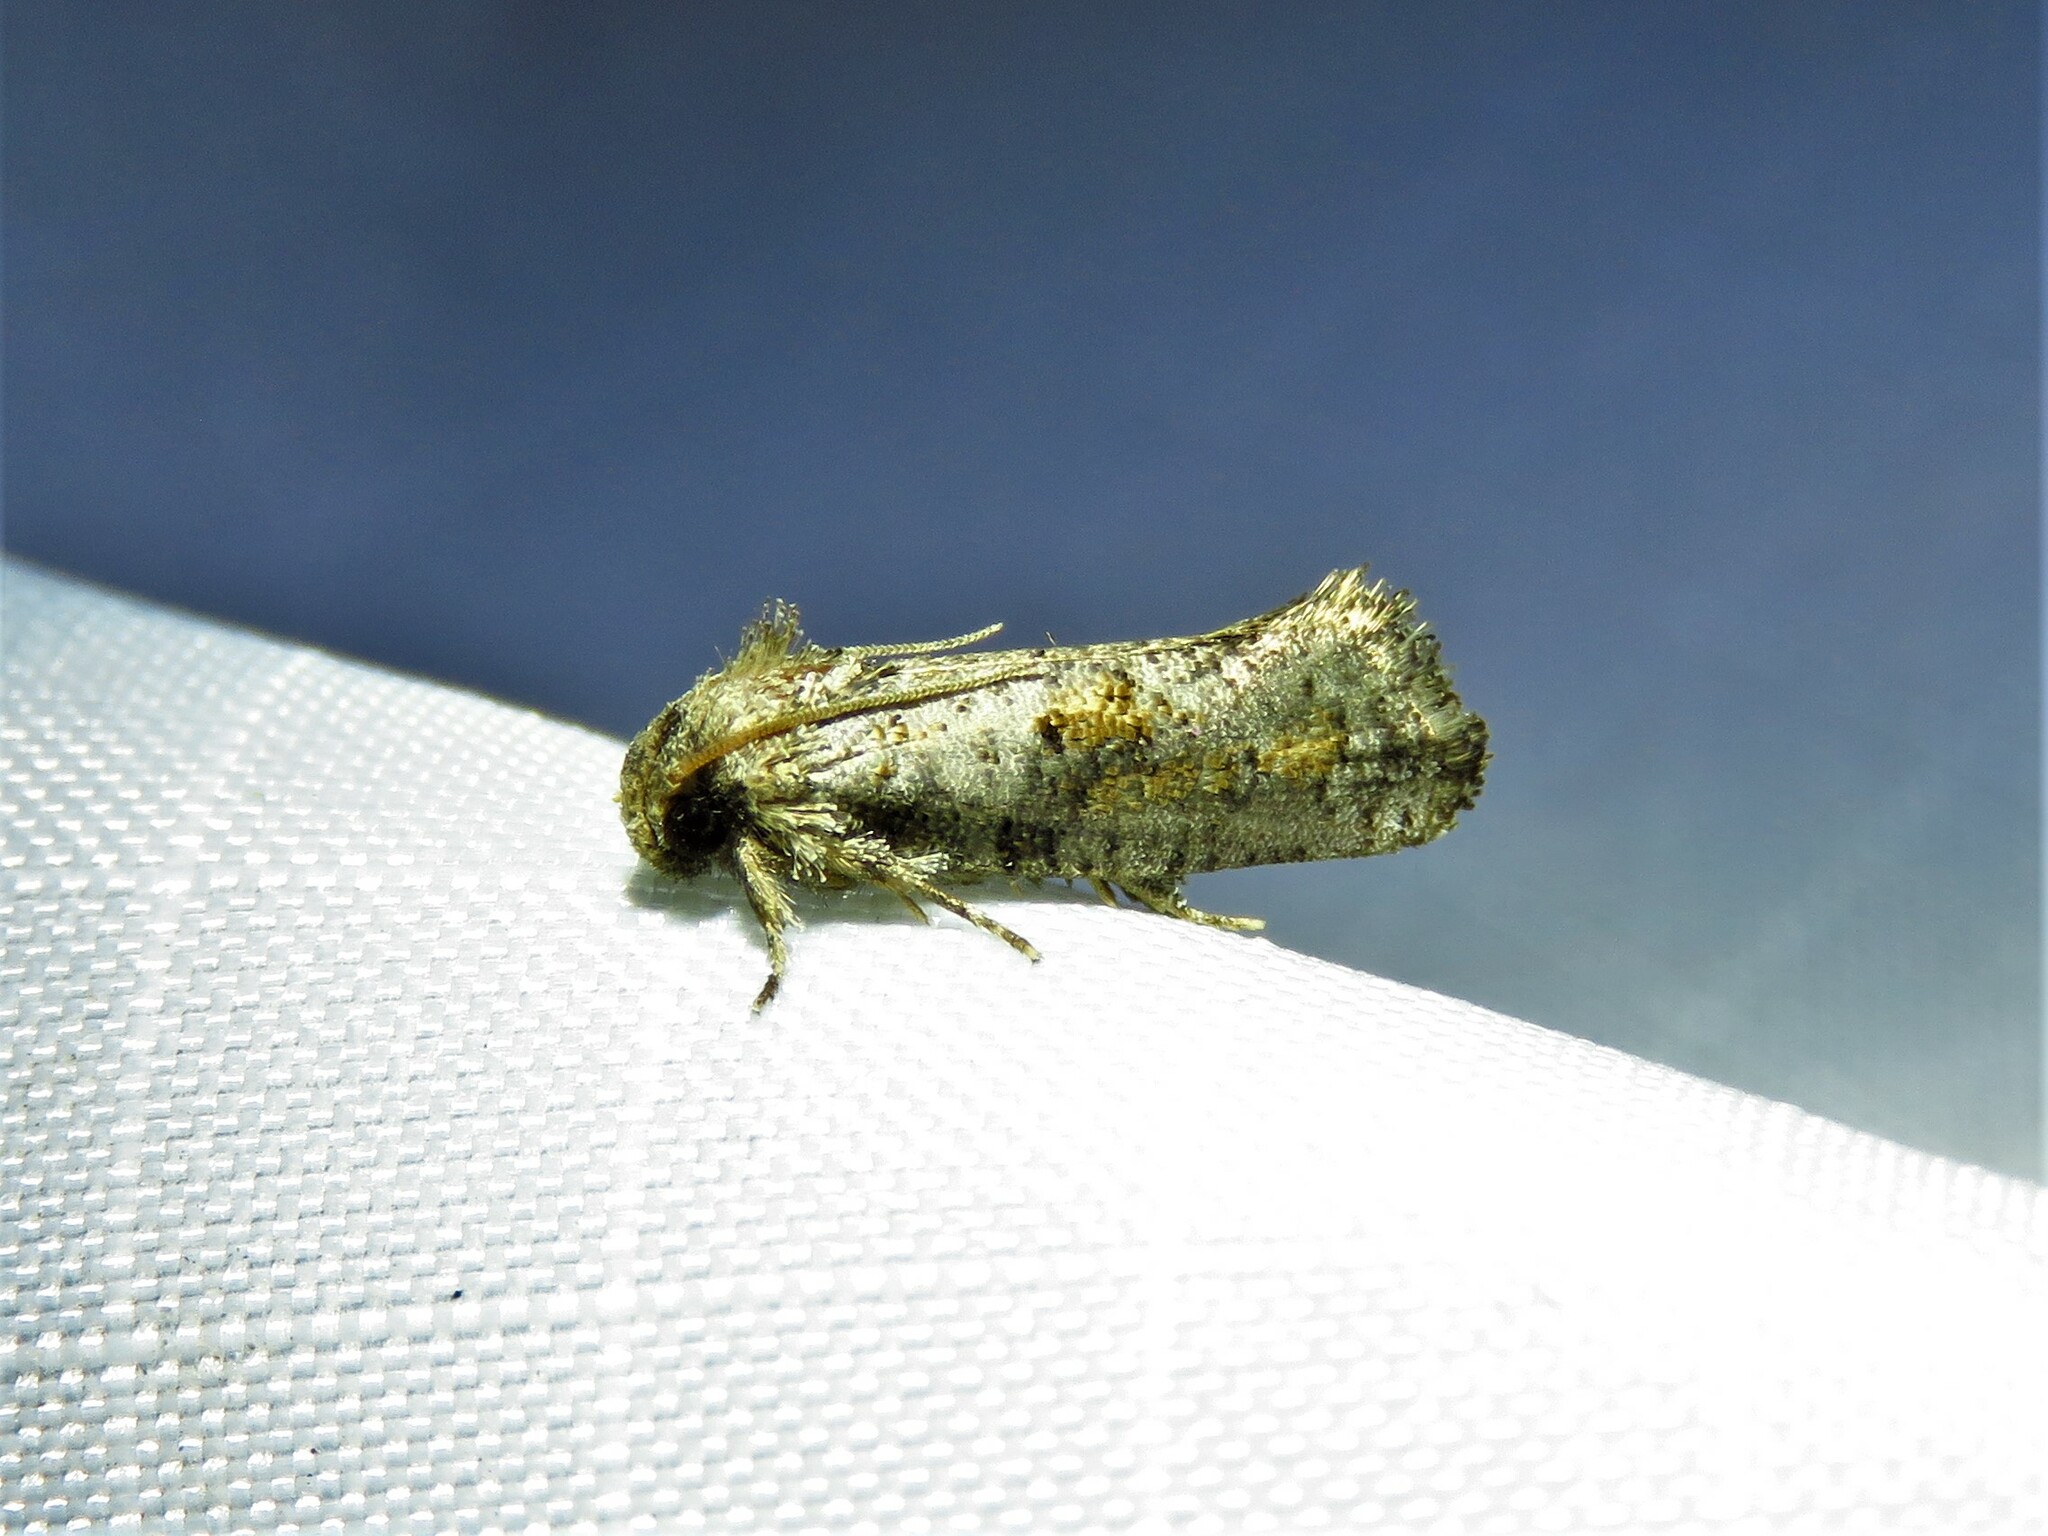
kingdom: Animalia
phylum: Arthropoda
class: Insecta
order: Lepidoptera
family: Tineidae
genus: Acrolophus
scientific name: Acrolophus piger
